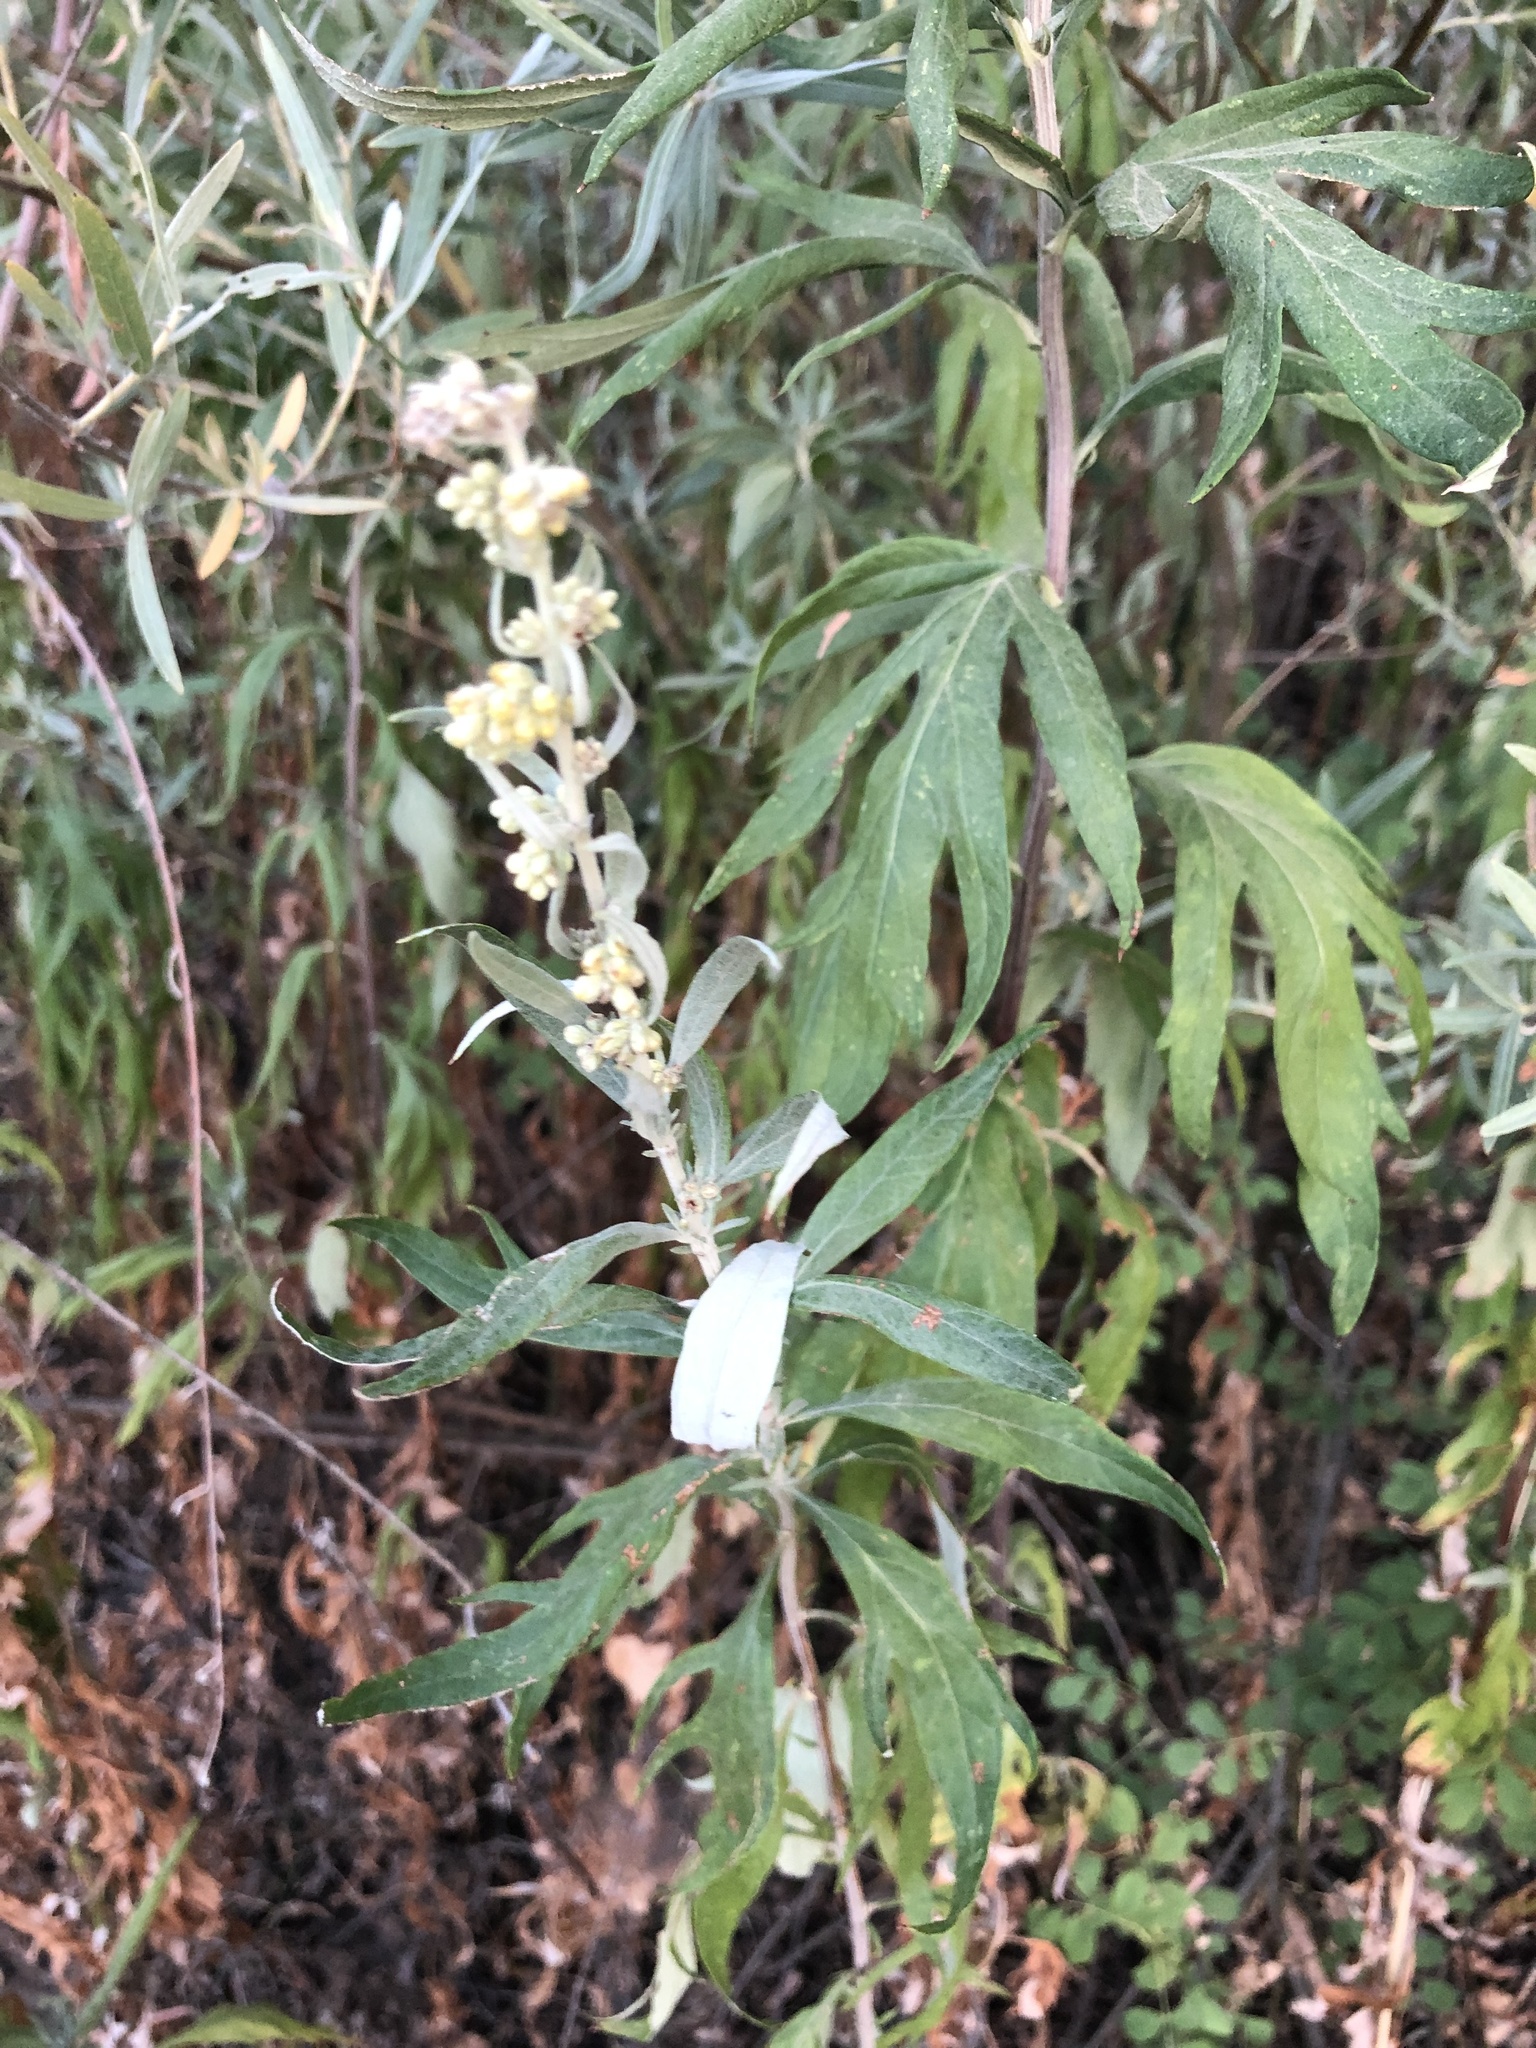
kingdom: Plantae
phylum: Tracheophyta
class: Magnoliopsida
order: Asterales
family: Asteraceae
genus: Artemisia
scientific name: Artemisia douglasiana
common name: Northwest mugwort
